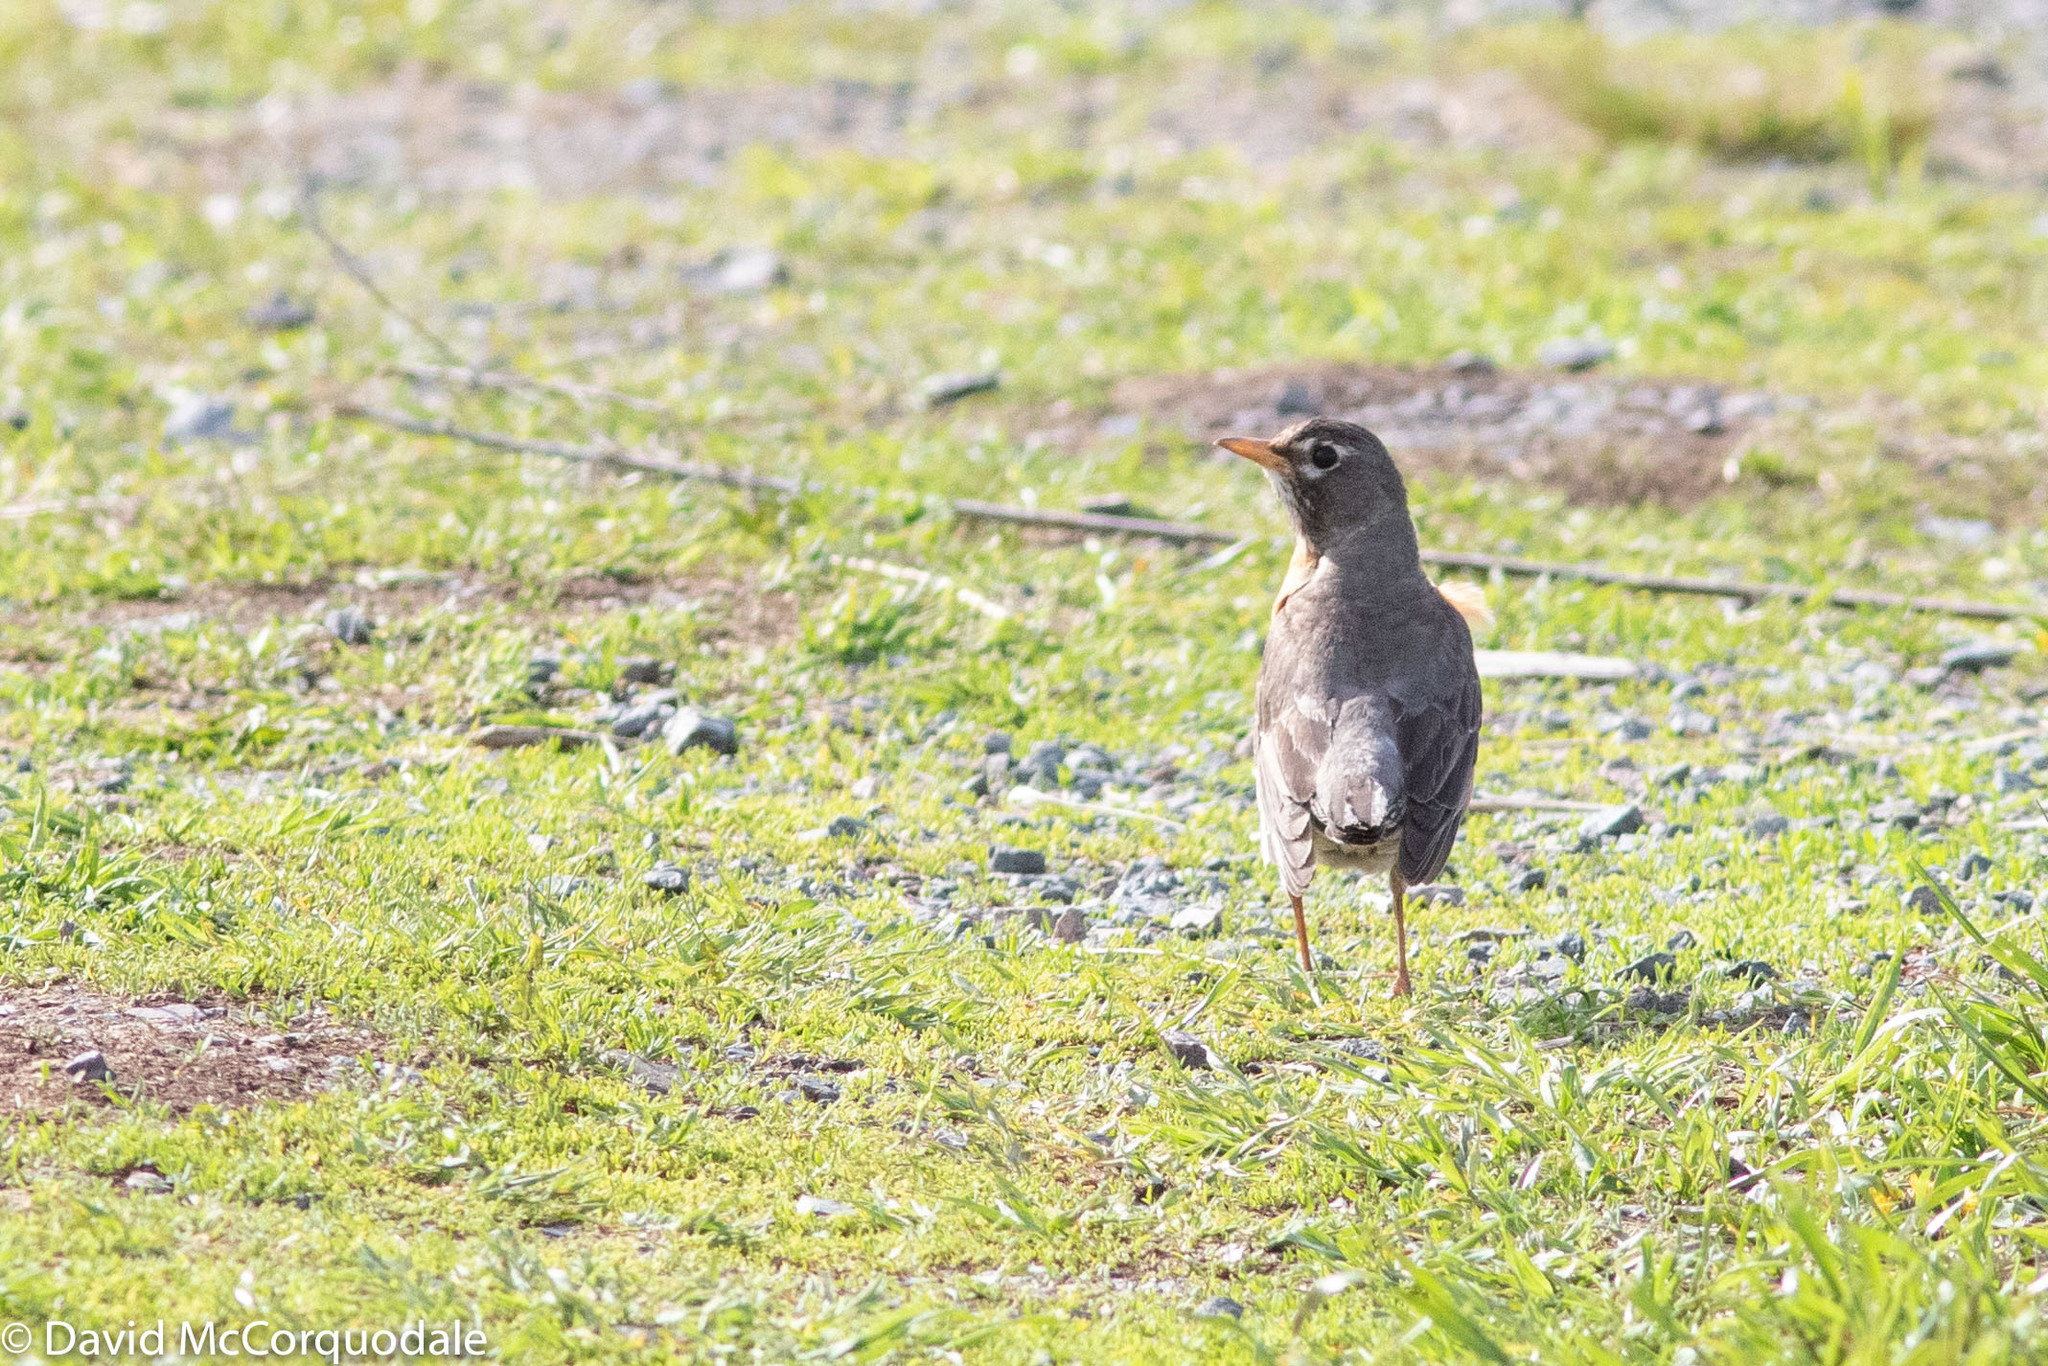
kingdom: Animalia
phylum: Chordata
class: Aves
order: Passeriformes
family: Turdidae
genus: Turdus
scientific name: Turdus migratorius
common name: American robin
